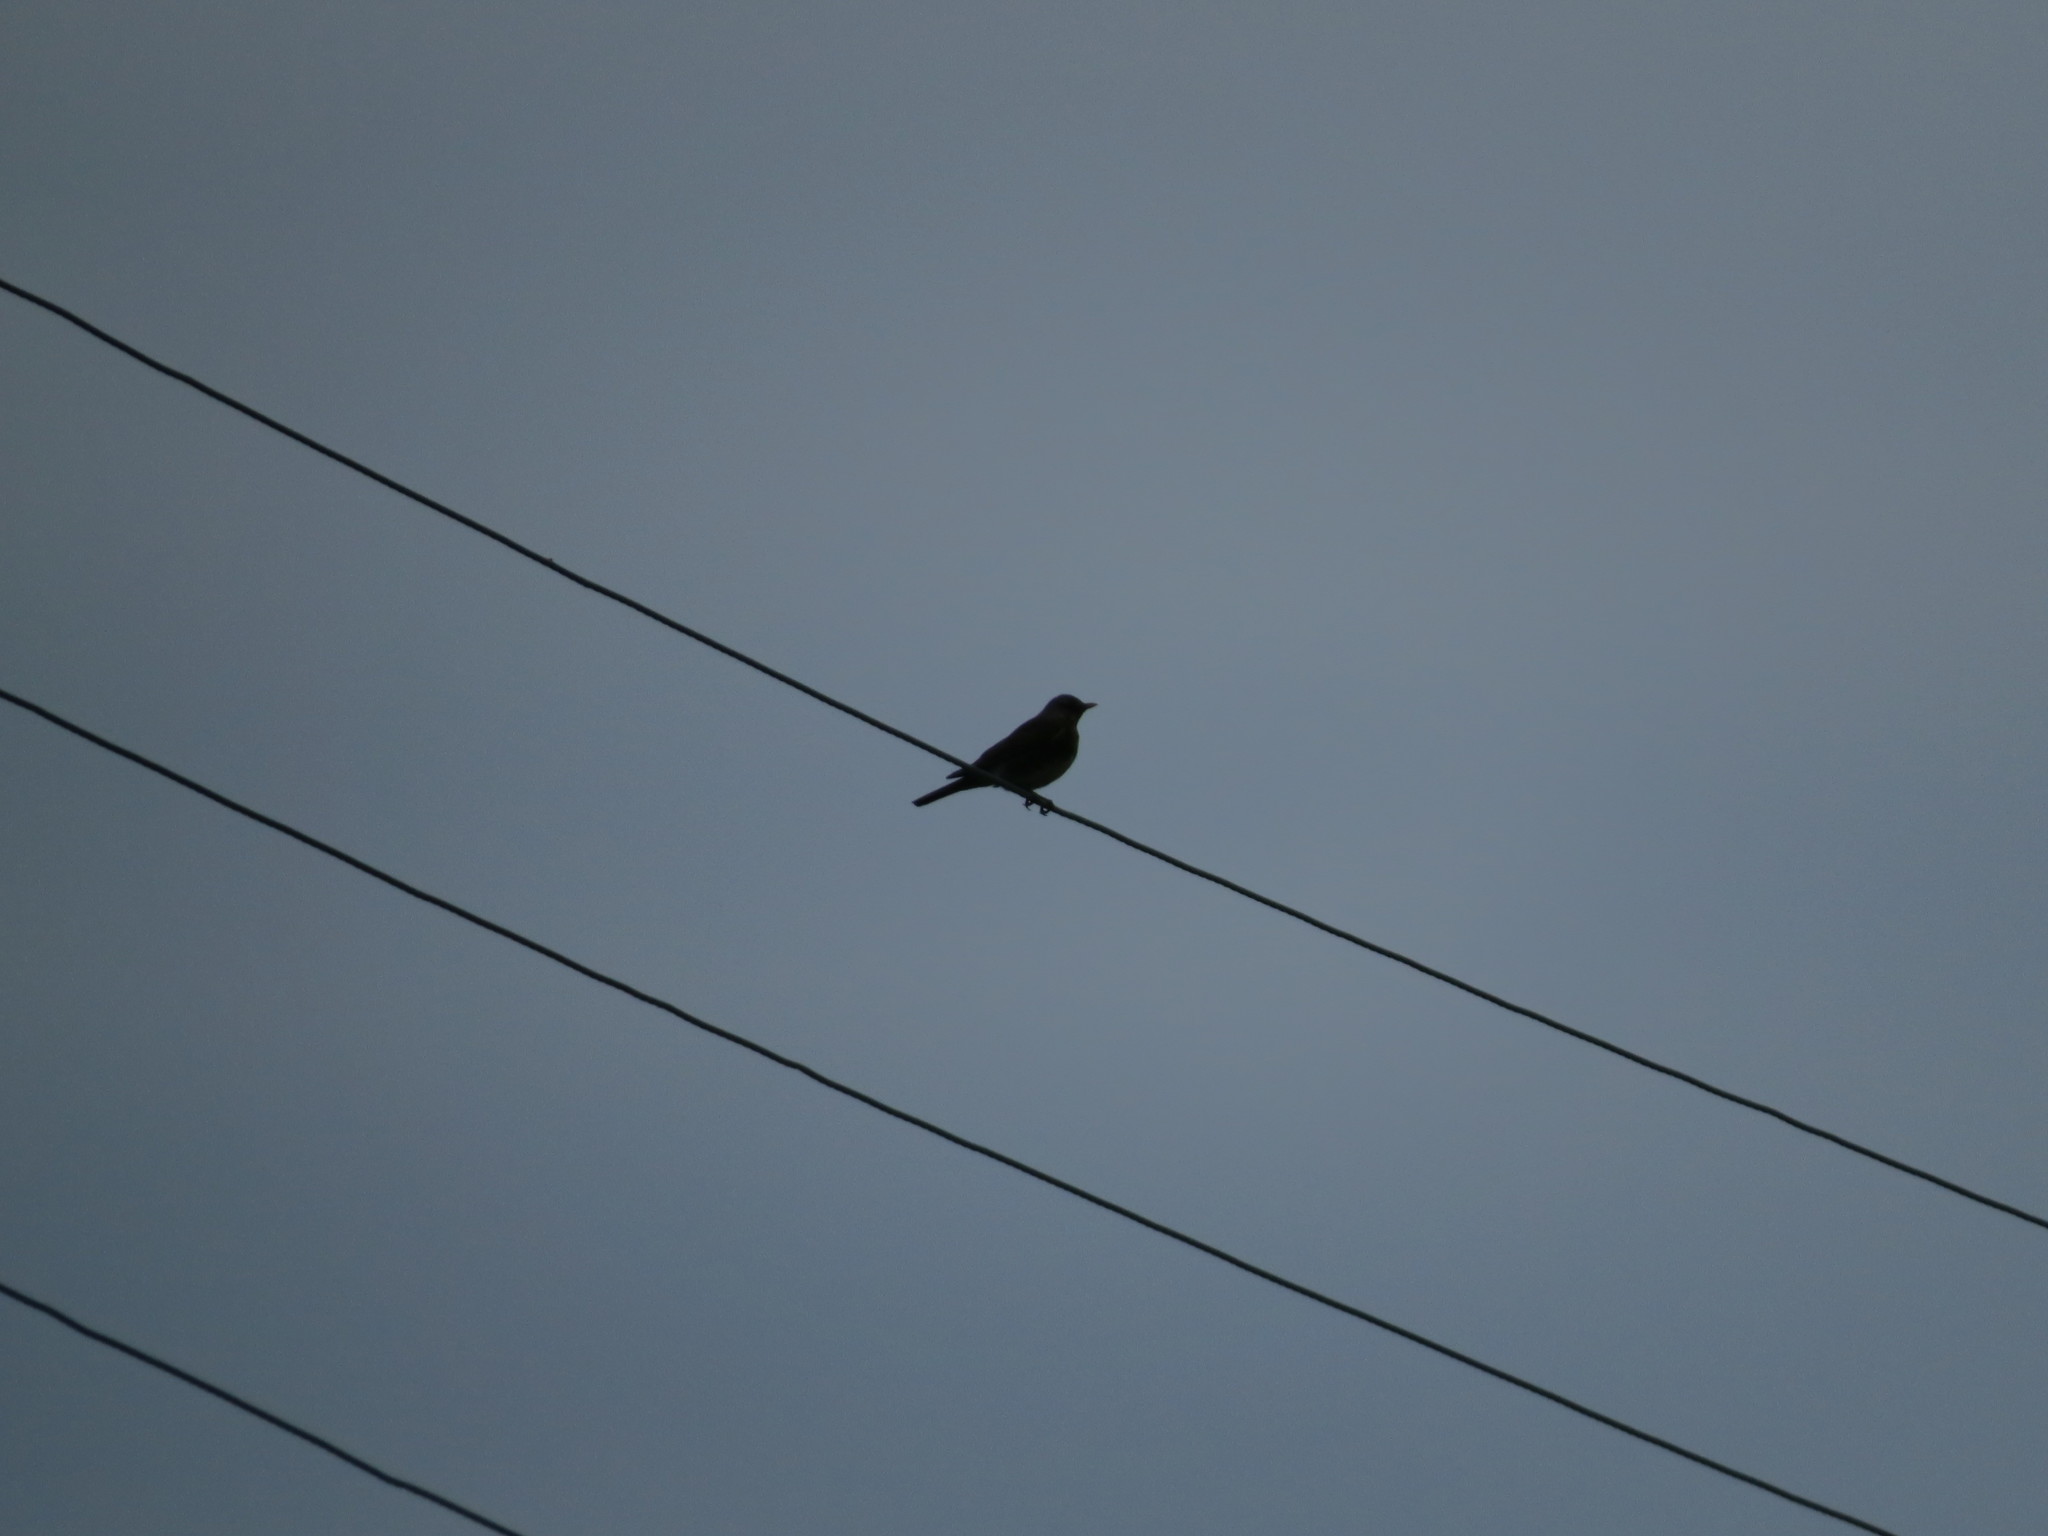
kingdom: Animalia
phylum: Chordata
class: Aves
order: Passeriformes
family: Turdidae
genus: Turdus
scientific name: Turdus pilaris
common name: Fieldfare
